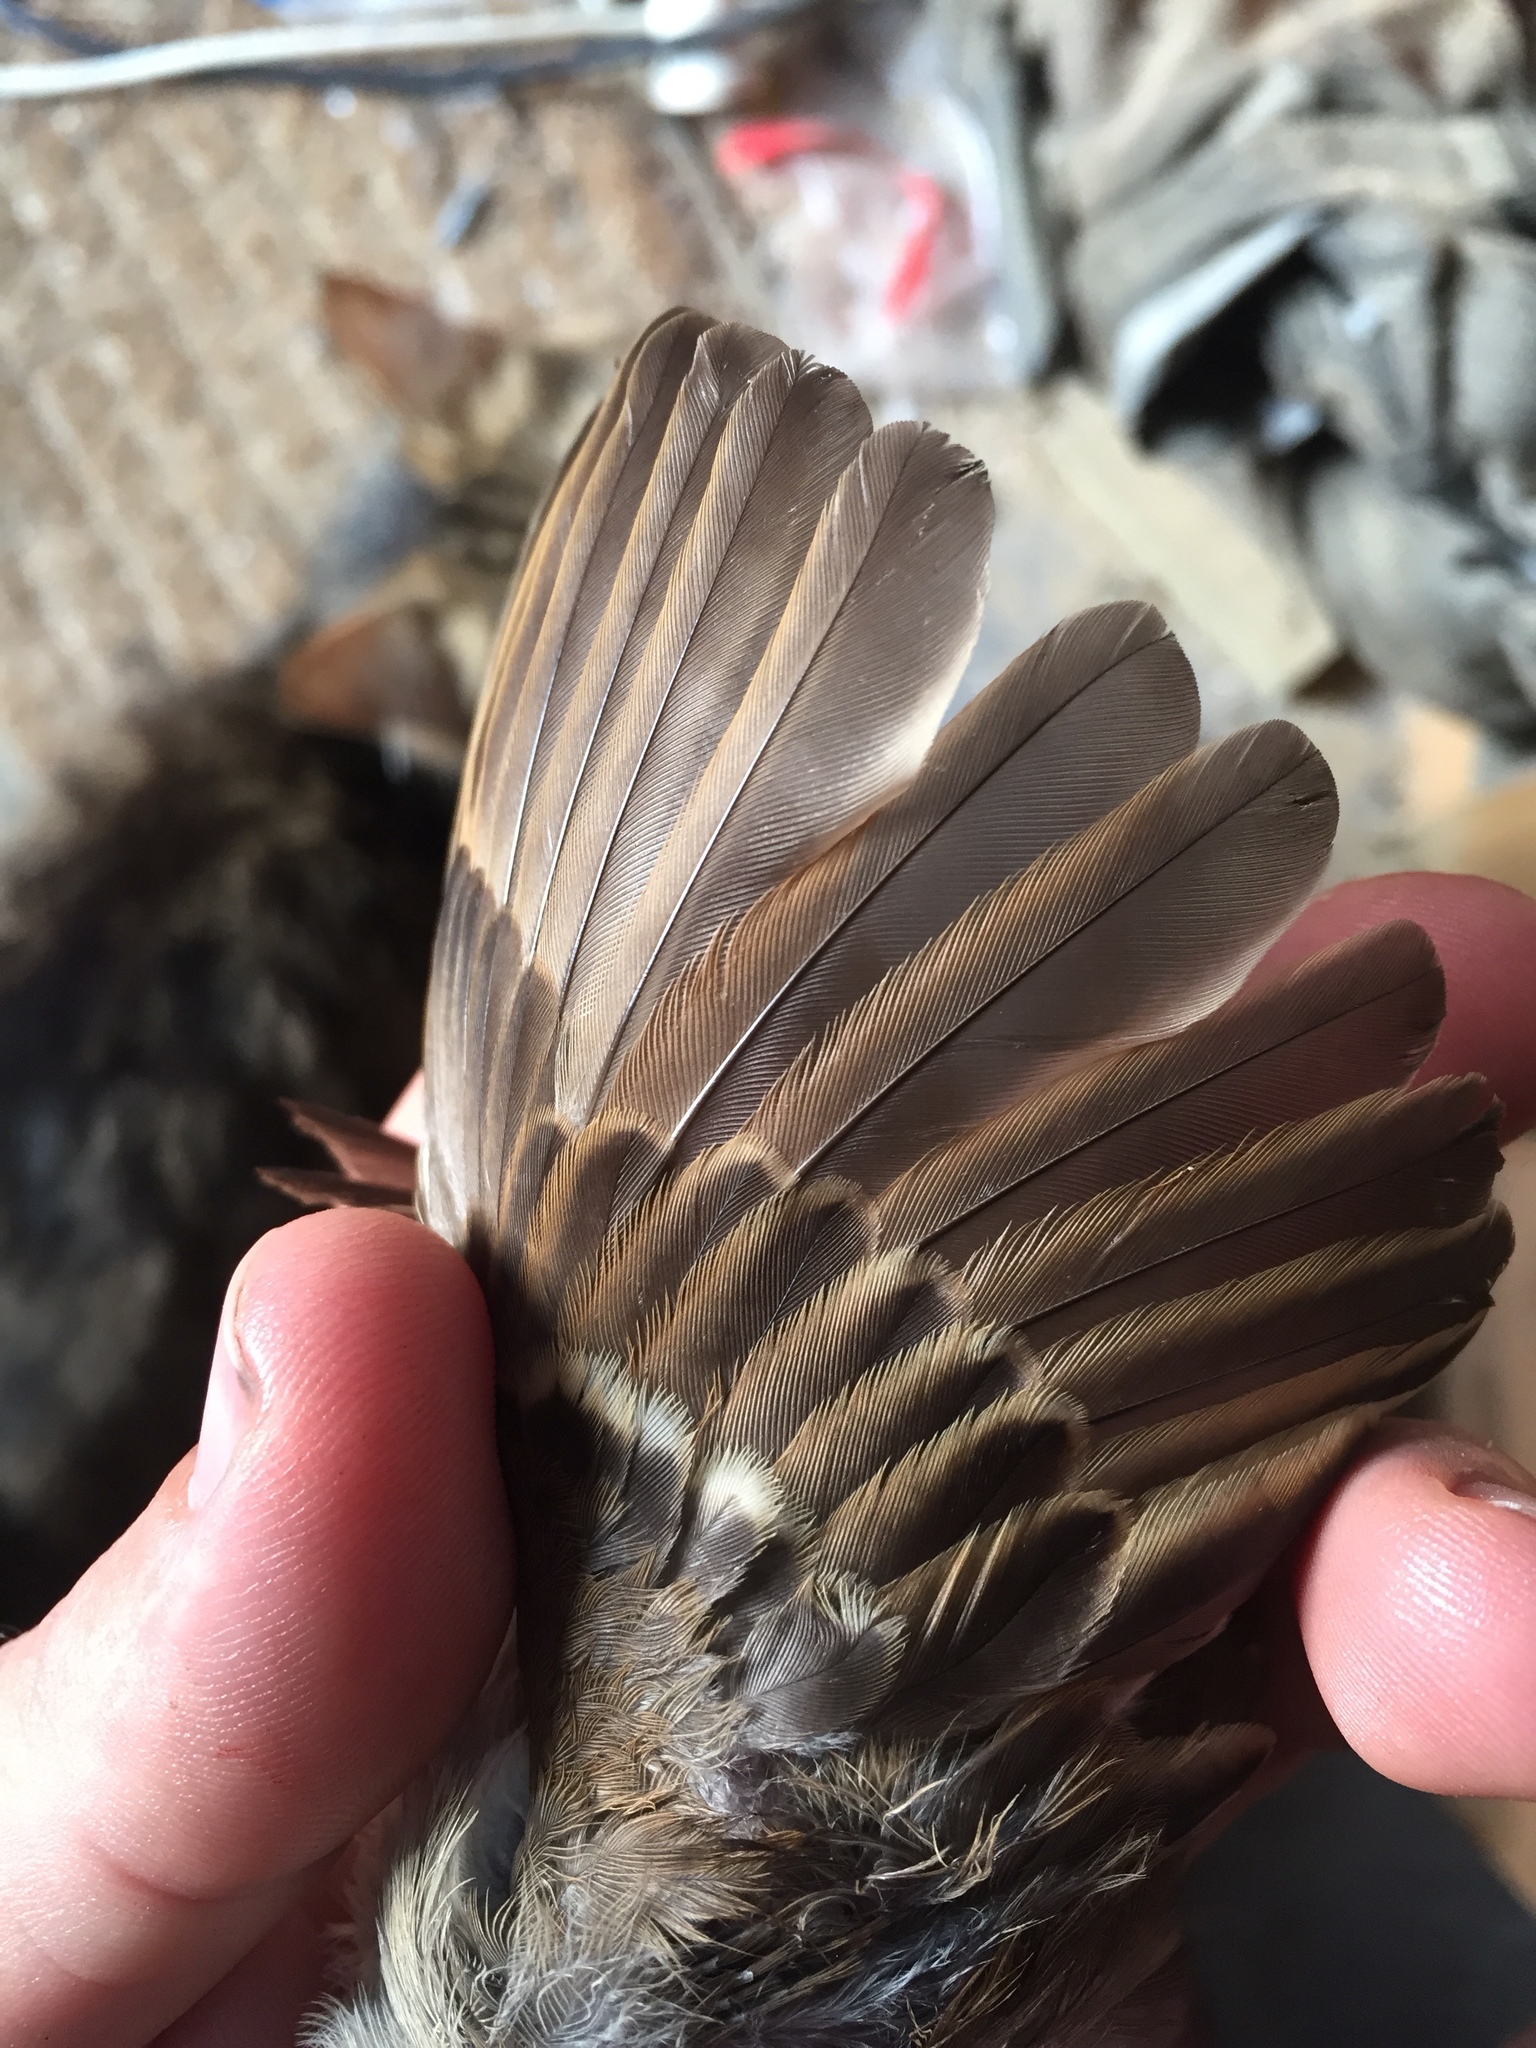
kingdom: Animalia
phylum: Chordata
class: Aves
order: Passeriformes
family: Passeridae
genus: Passer
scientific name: Passer domesticus
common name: House sparrow
